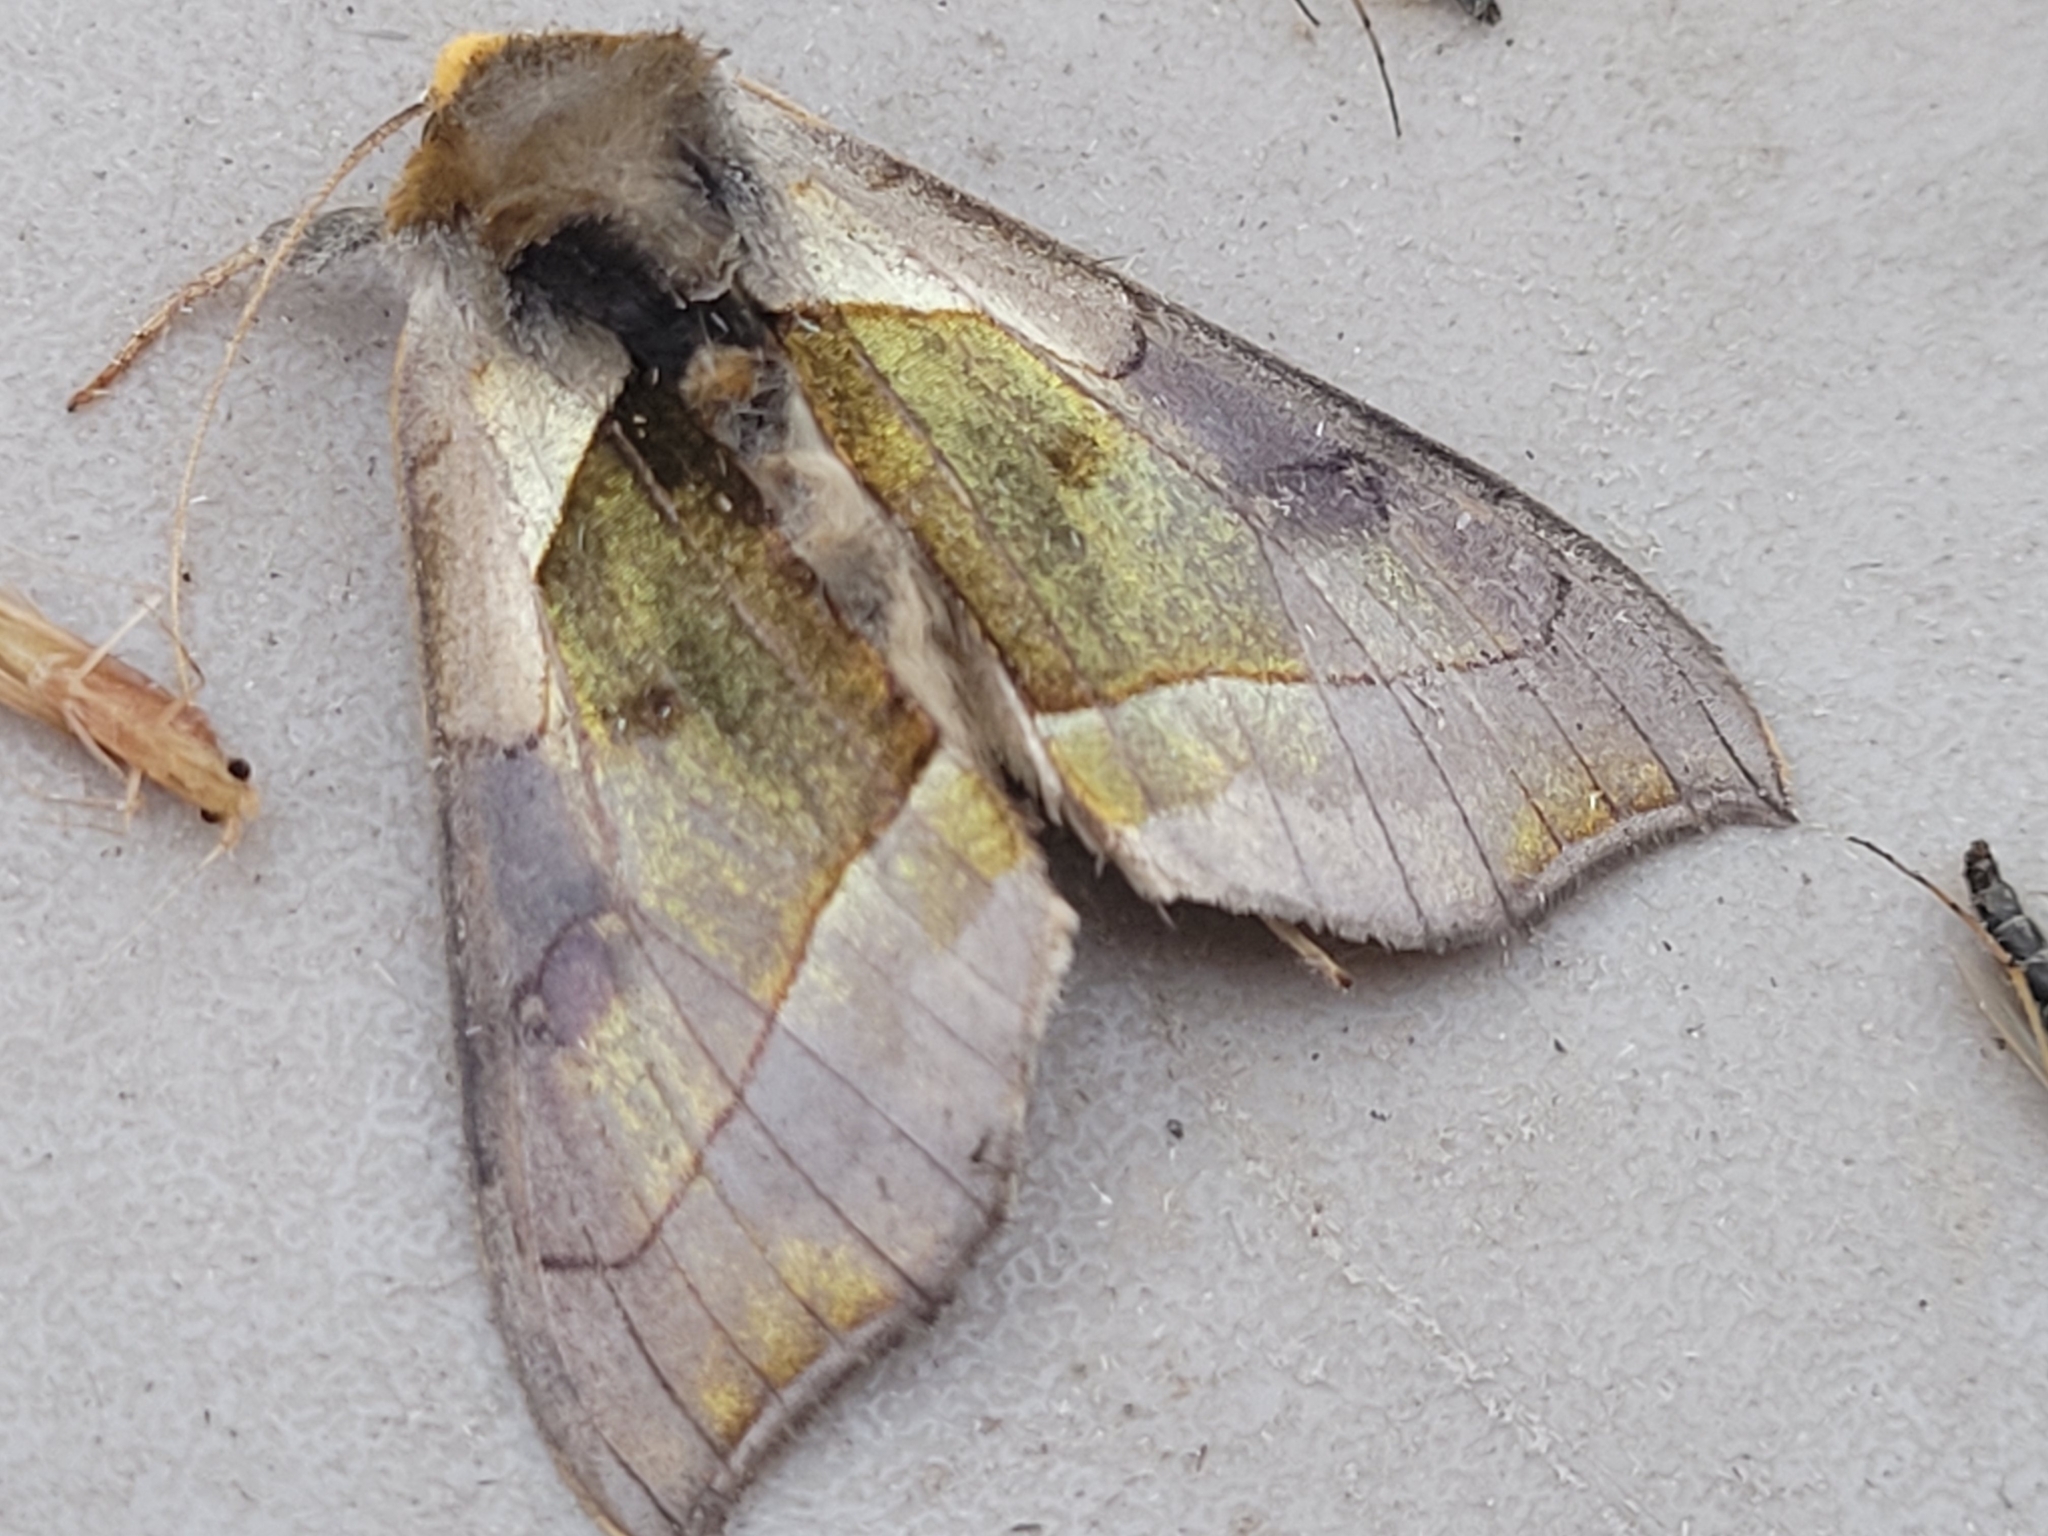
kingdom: Animalia
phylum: Arthropoda
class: Insecta
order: Lepidoptera
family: Noctuidae
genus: Diachrysia
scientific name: Diachrysia balluca
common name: Green-patched looper moth
